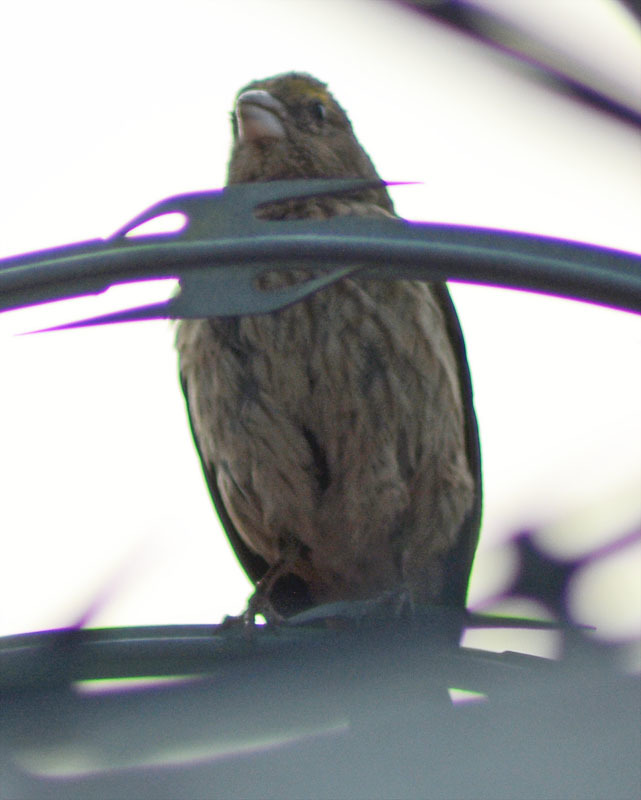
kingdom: Animalia
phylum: Chordata
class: Aves
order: Passeriformes
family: Fringillidae
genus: Haemorhous
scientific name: Haemorhous mexicanus
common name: House finch
